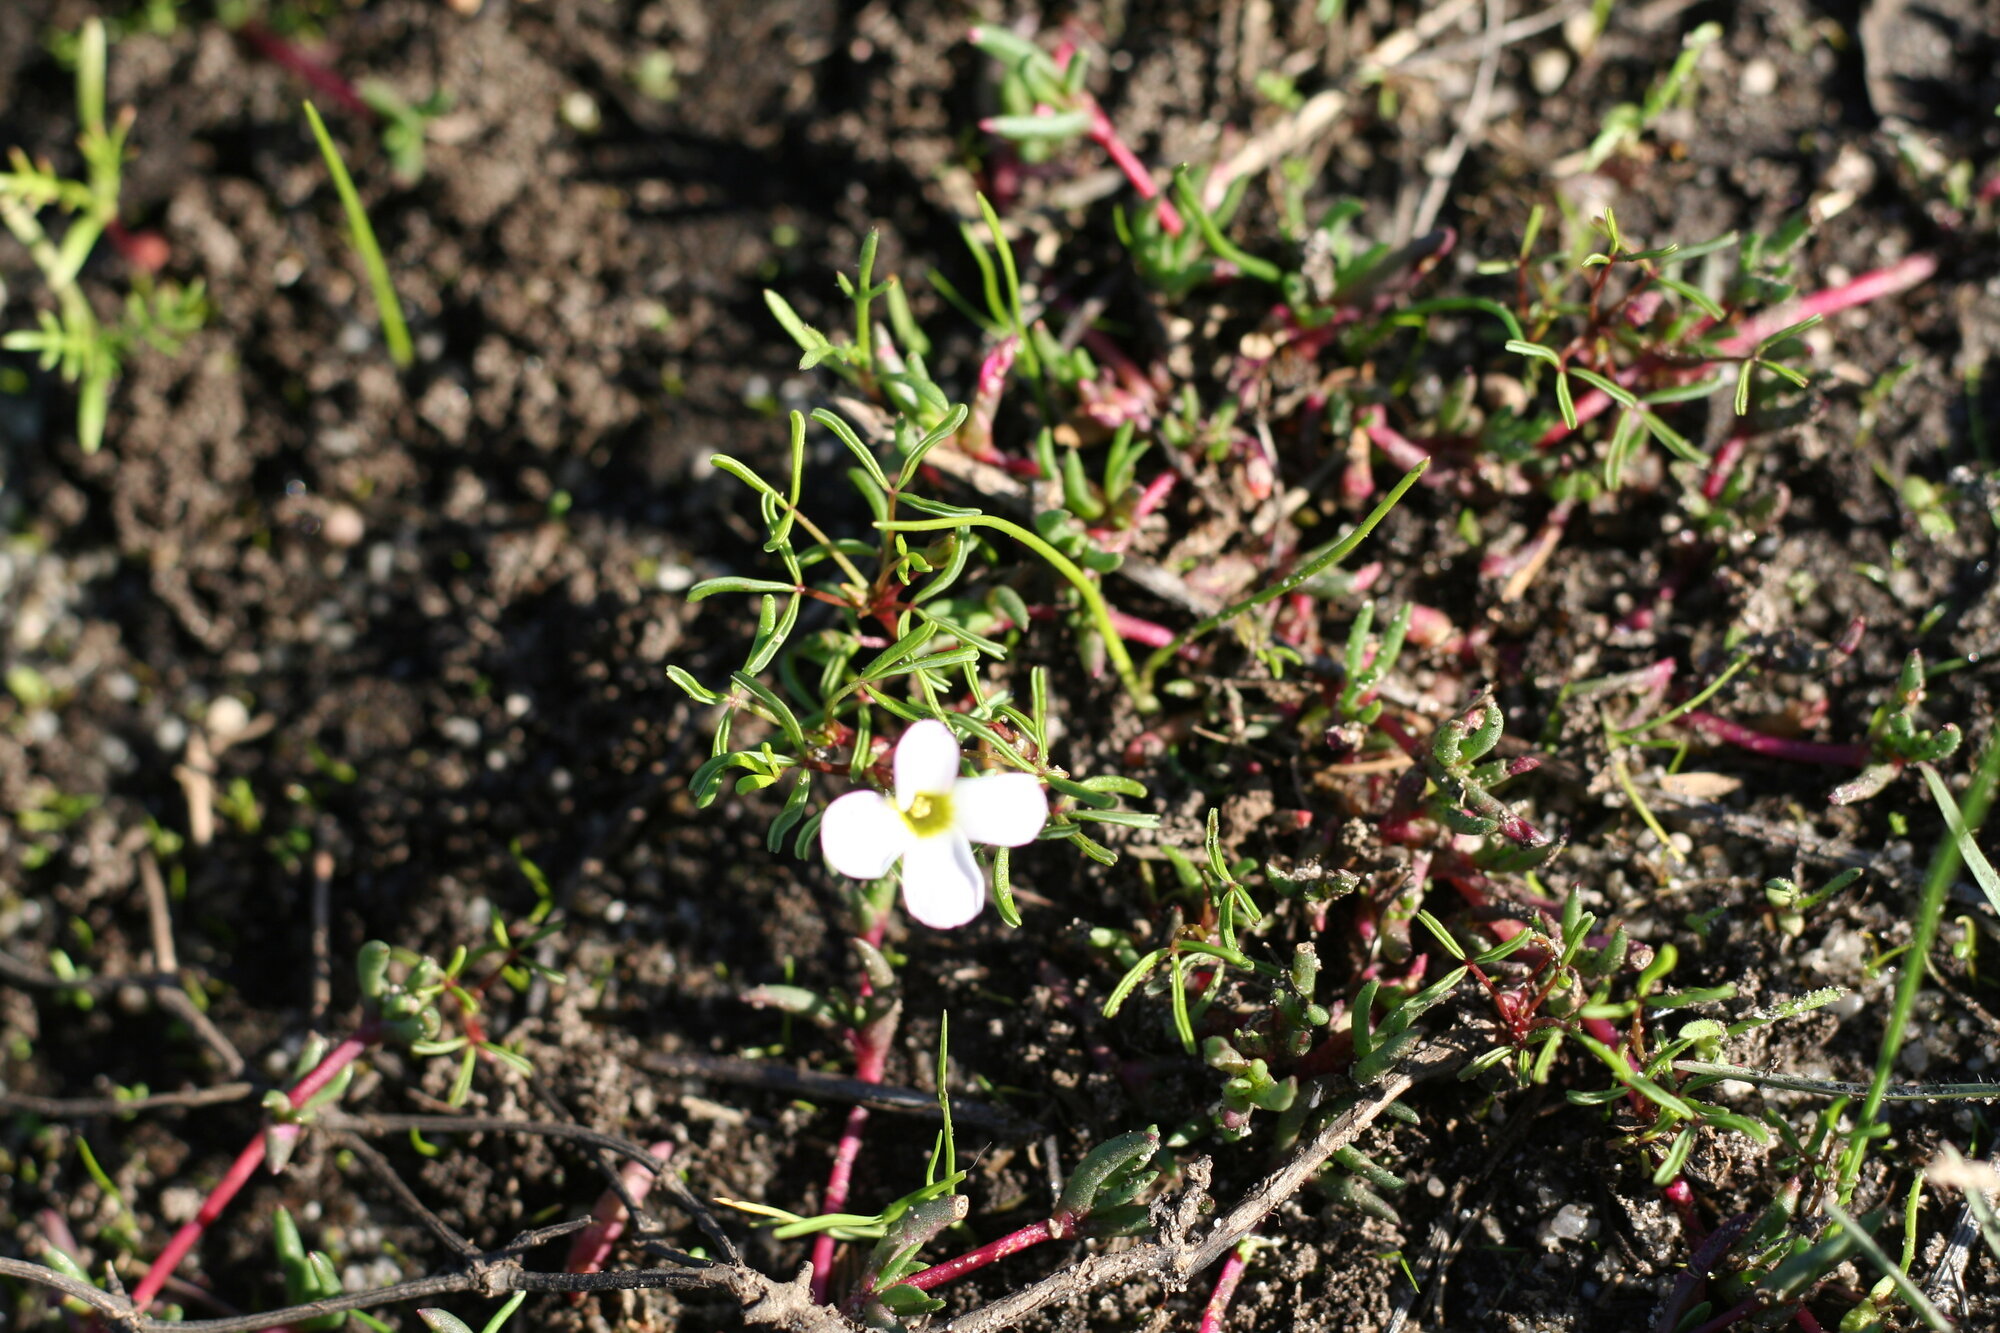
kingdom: Plantae
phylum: Tracheophyta
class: Magnoliopsida
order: Oxalidales
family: Oxalidaceae
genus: Oxalis
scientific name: Oxalis pusilla
